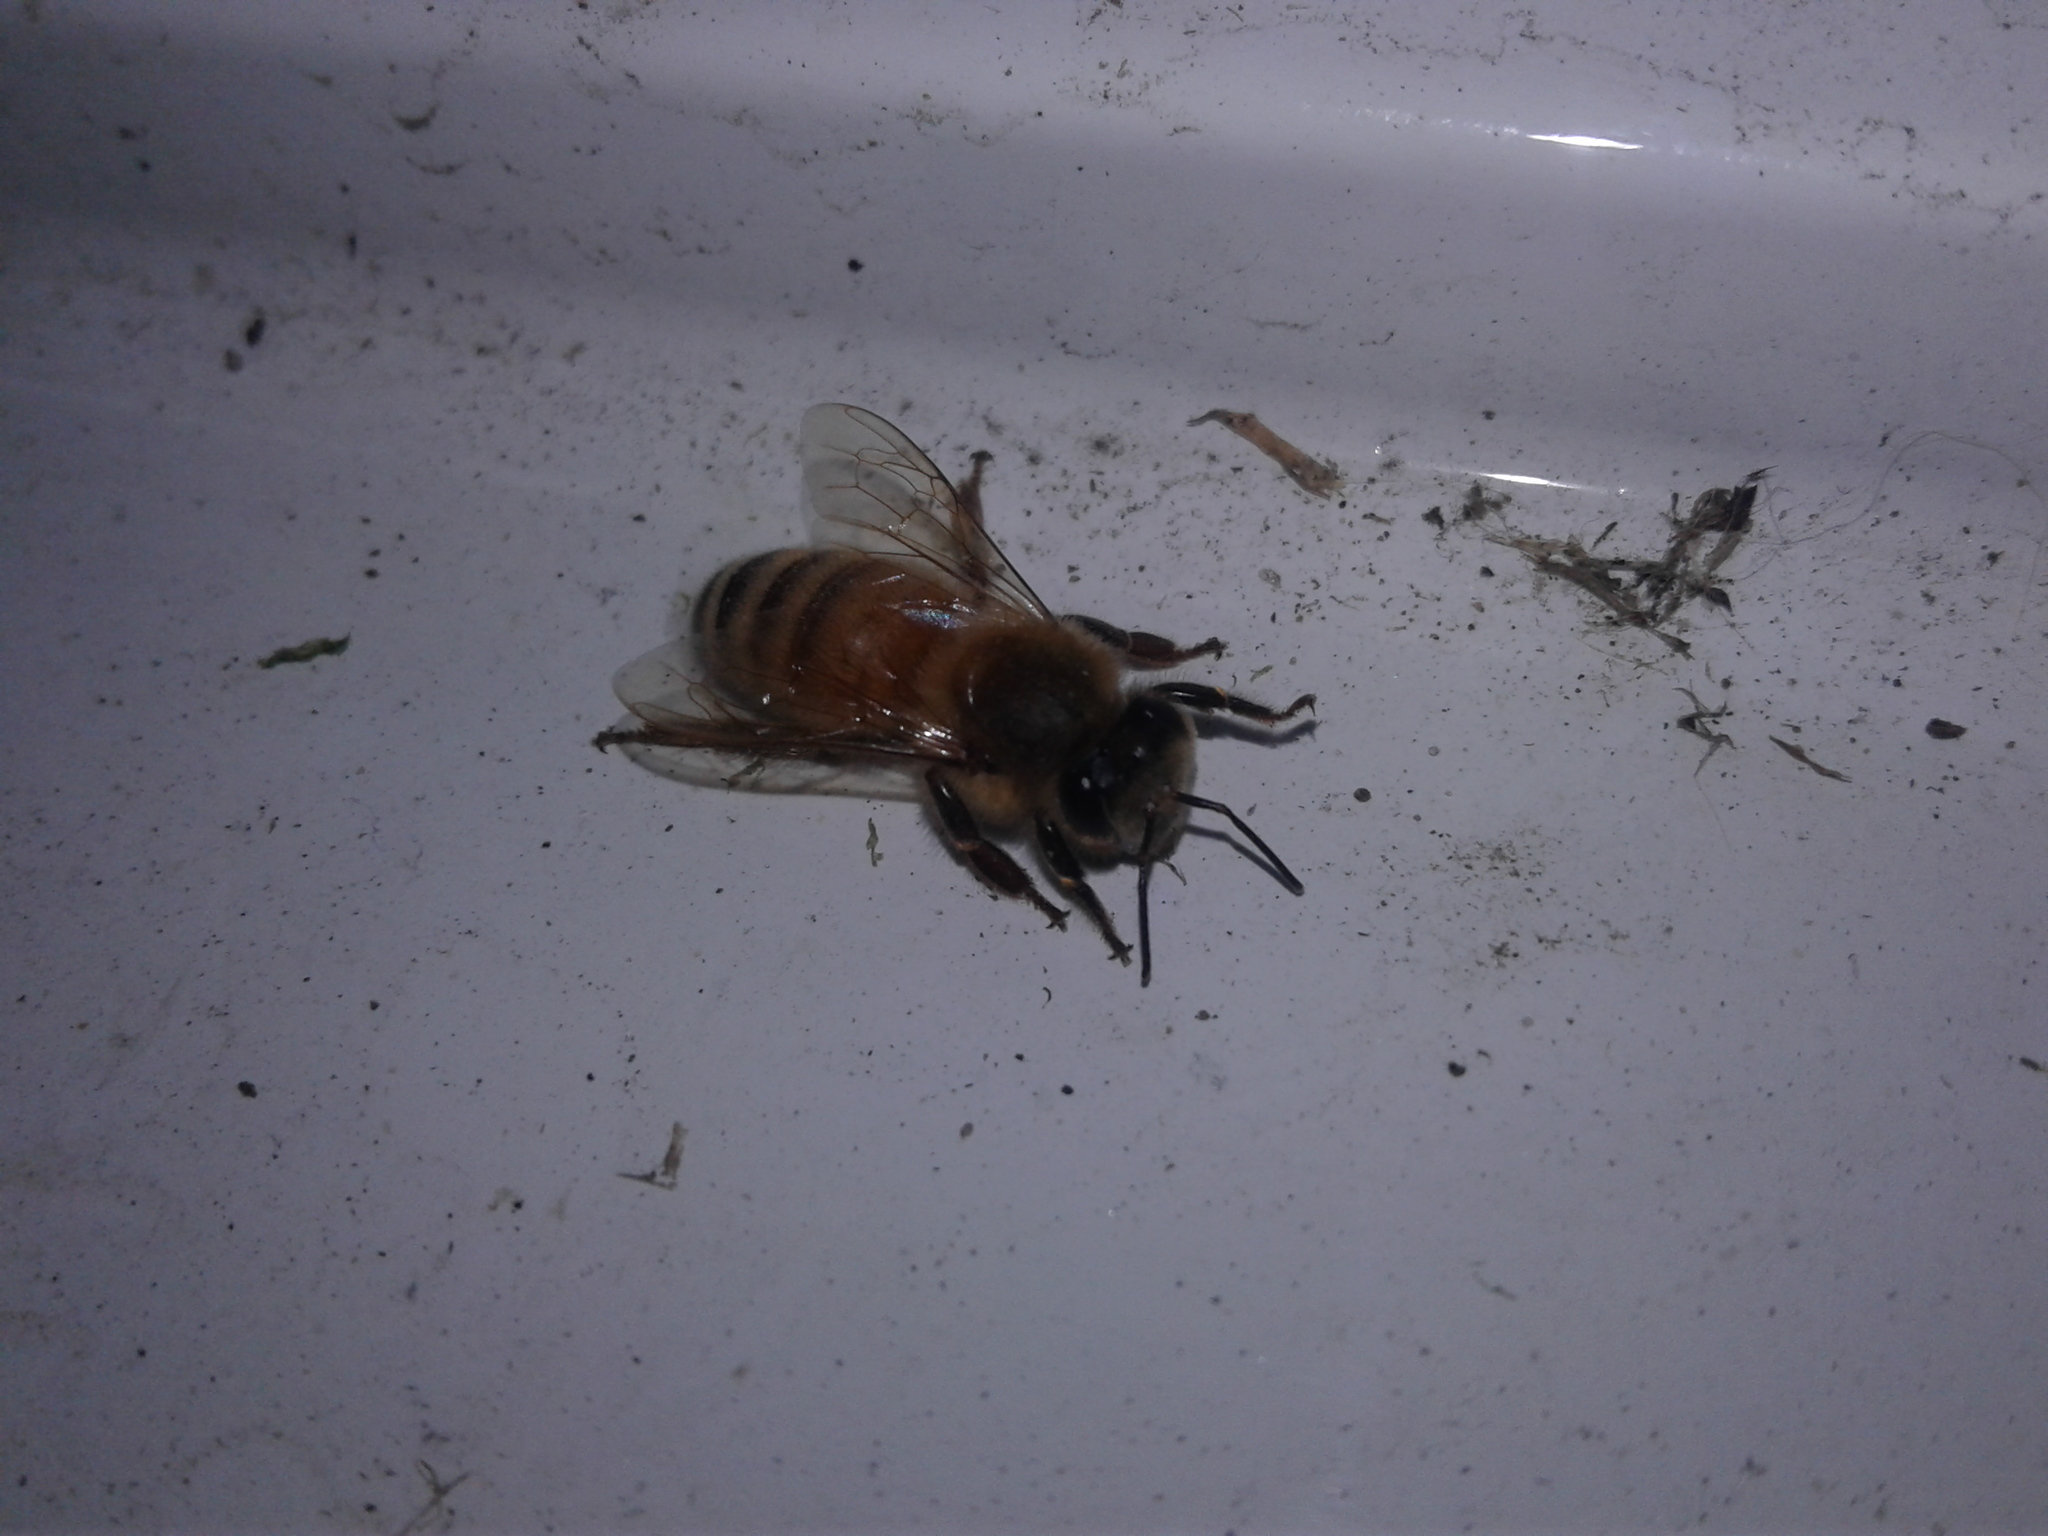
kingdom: Animalia
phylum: Arthropoda
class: Insecta
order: Hymenoptera
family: Apidae
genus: Apis
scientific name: Apis mellifera
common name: Honey bee
